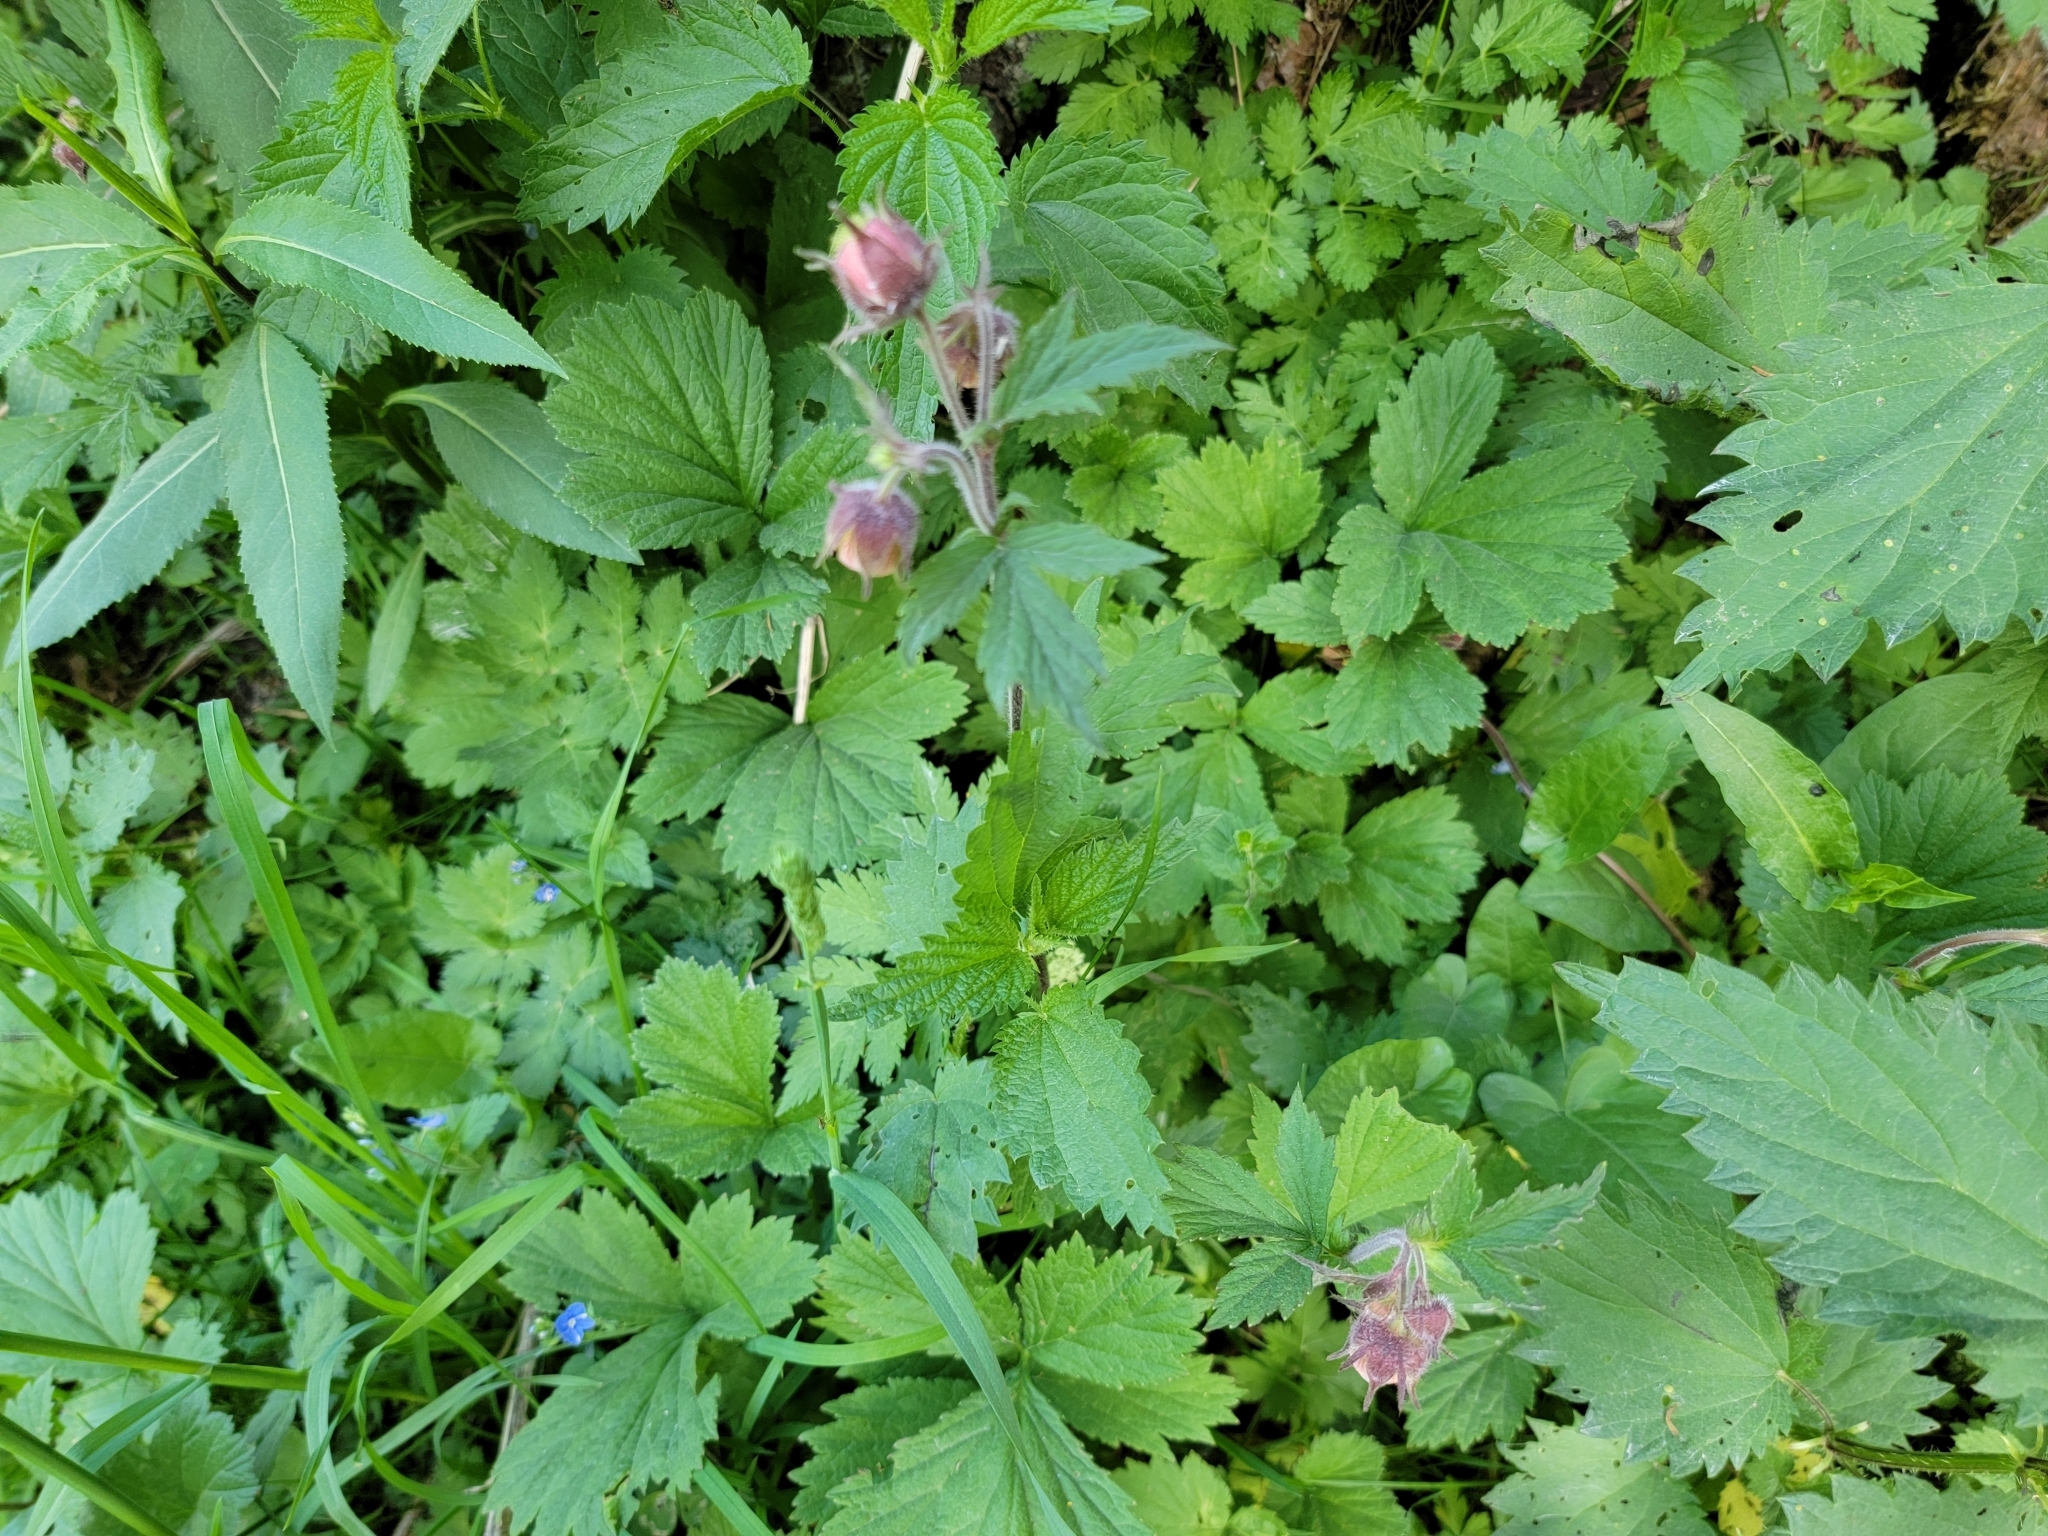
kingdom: Plantae
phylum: Tracheophyta
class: Magnoliopsida
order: Rosales
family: Rosaceae
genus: Geum
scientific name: Geum rivale
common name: Water avens
